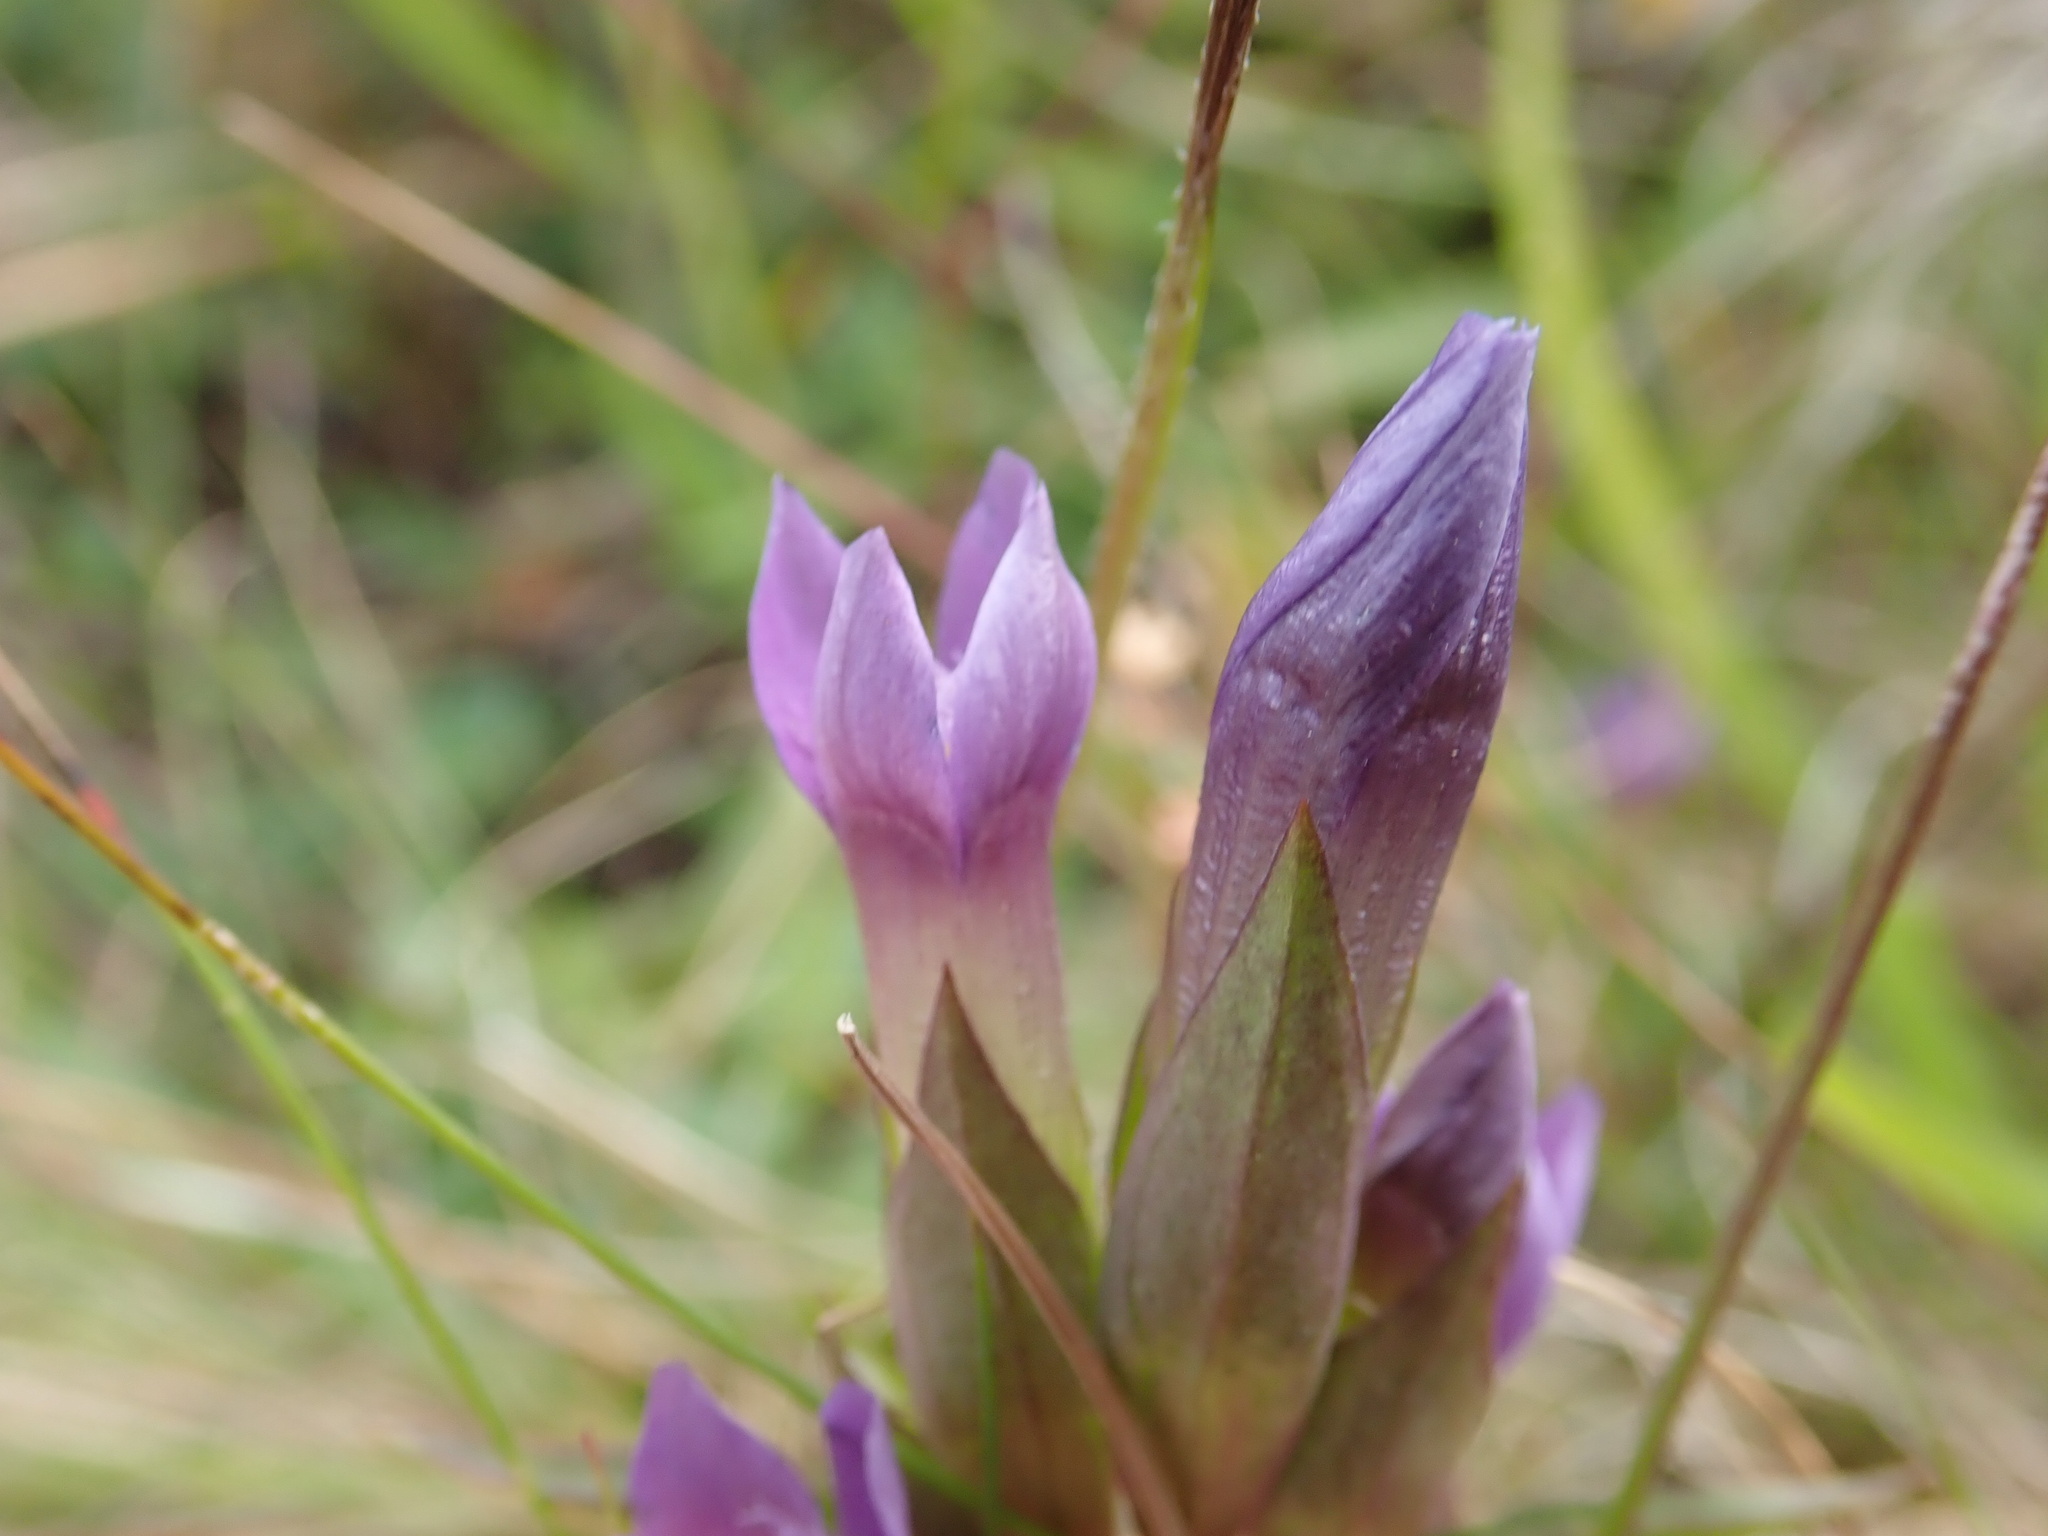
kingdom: Plantae
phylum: Tracheophyta
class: Magnoliopsida
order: Gentianales
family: Gentianaceae
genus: Gentianella
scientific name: Gentianella campestris
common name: Field gentian
